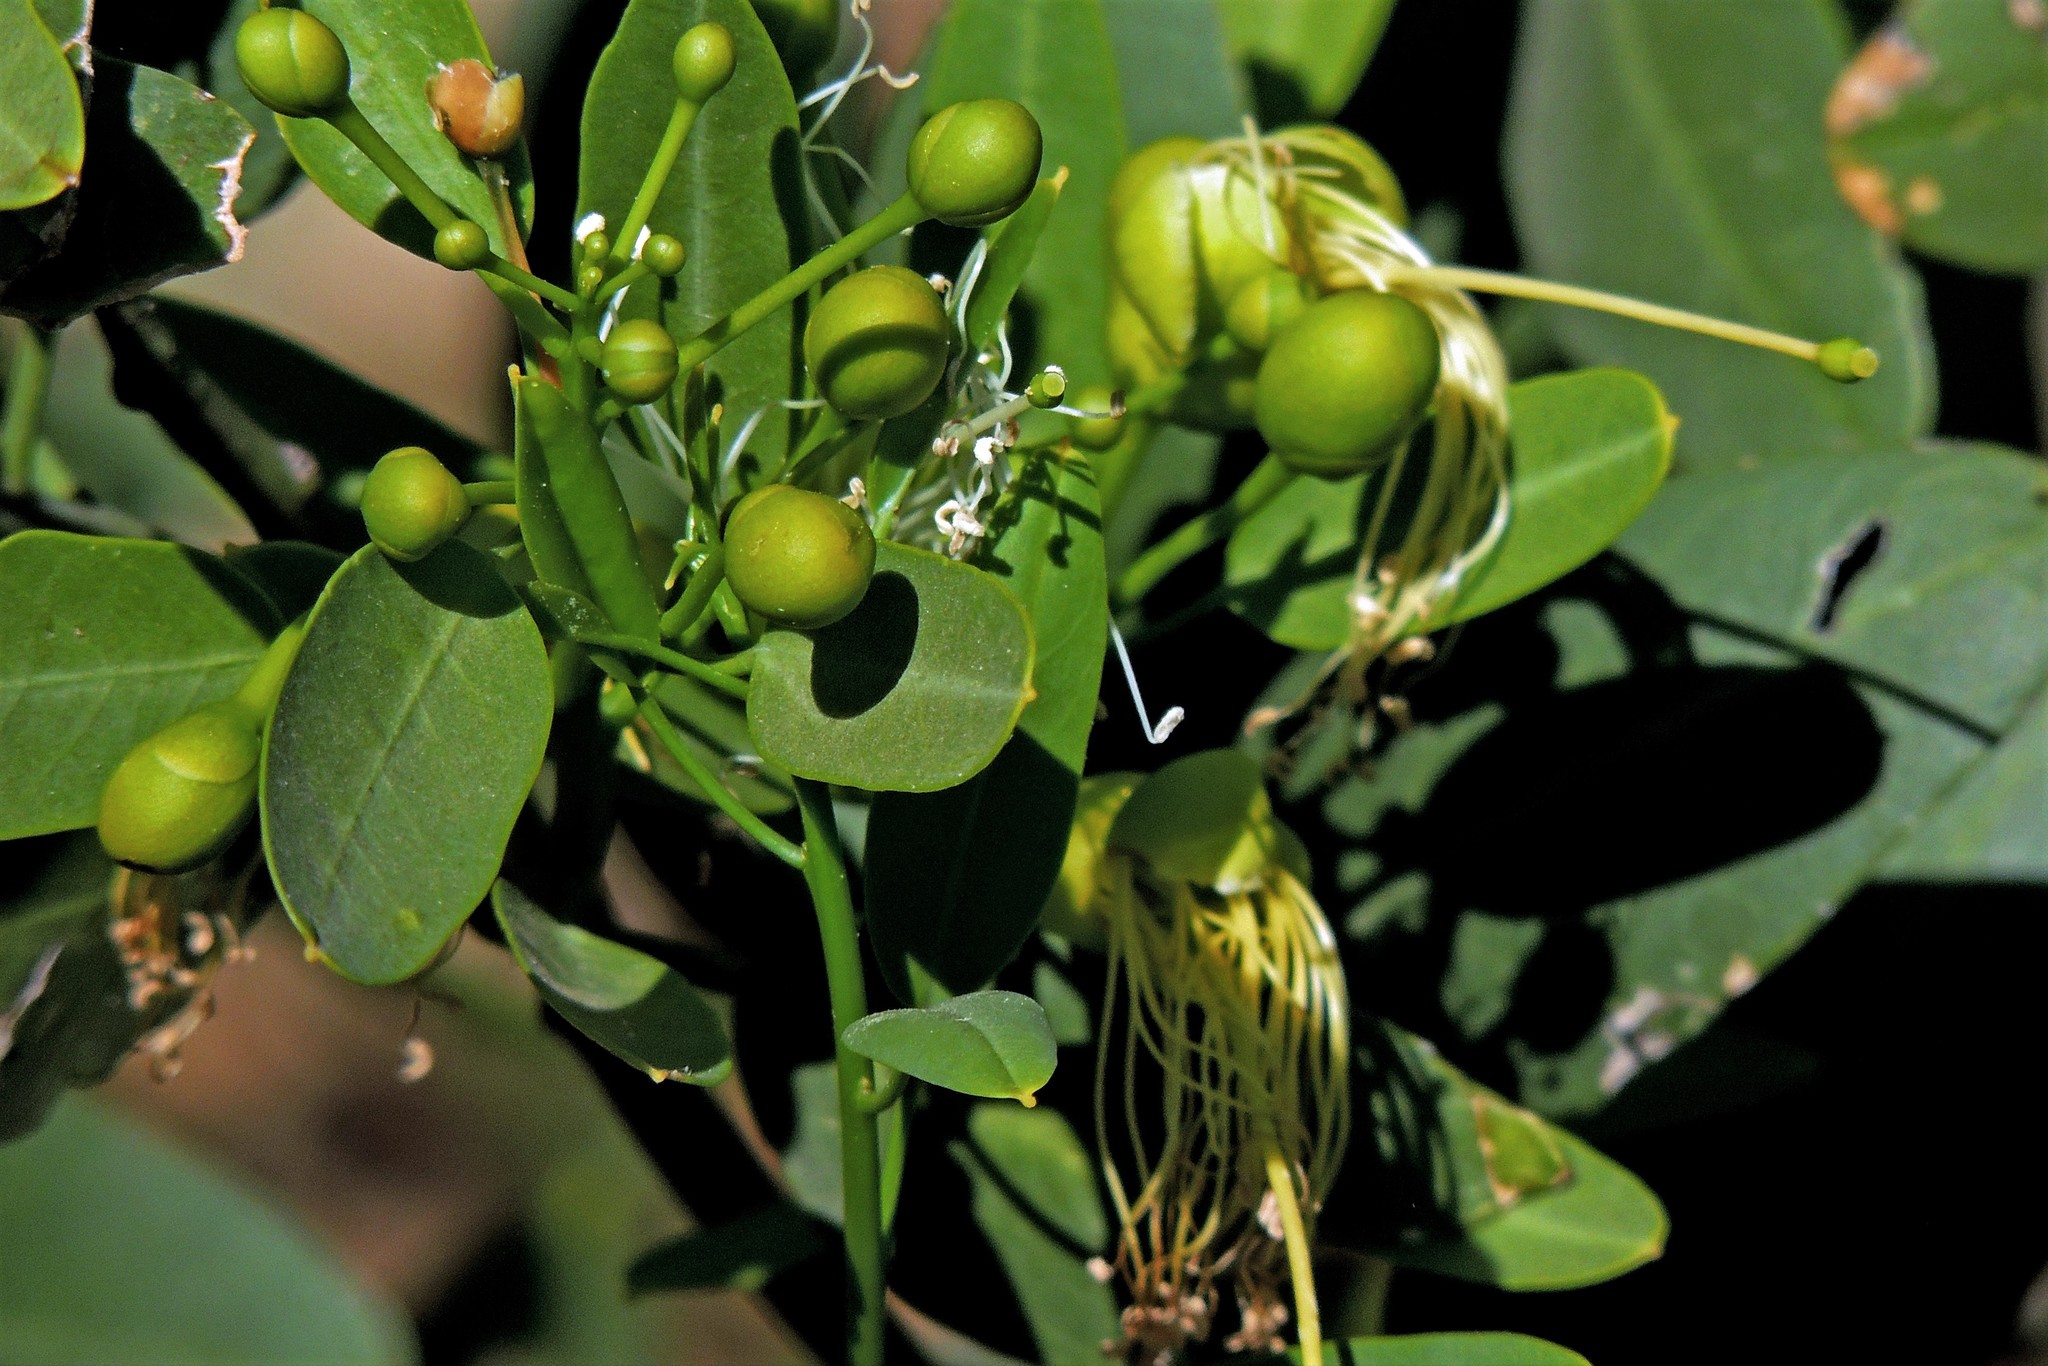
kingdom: Plantae
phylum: Tracheophyta
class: Magnoliopsida
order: Brassicales
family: Capparaceae
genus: Anisocapparis
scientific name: Anisocapparis speciosa
